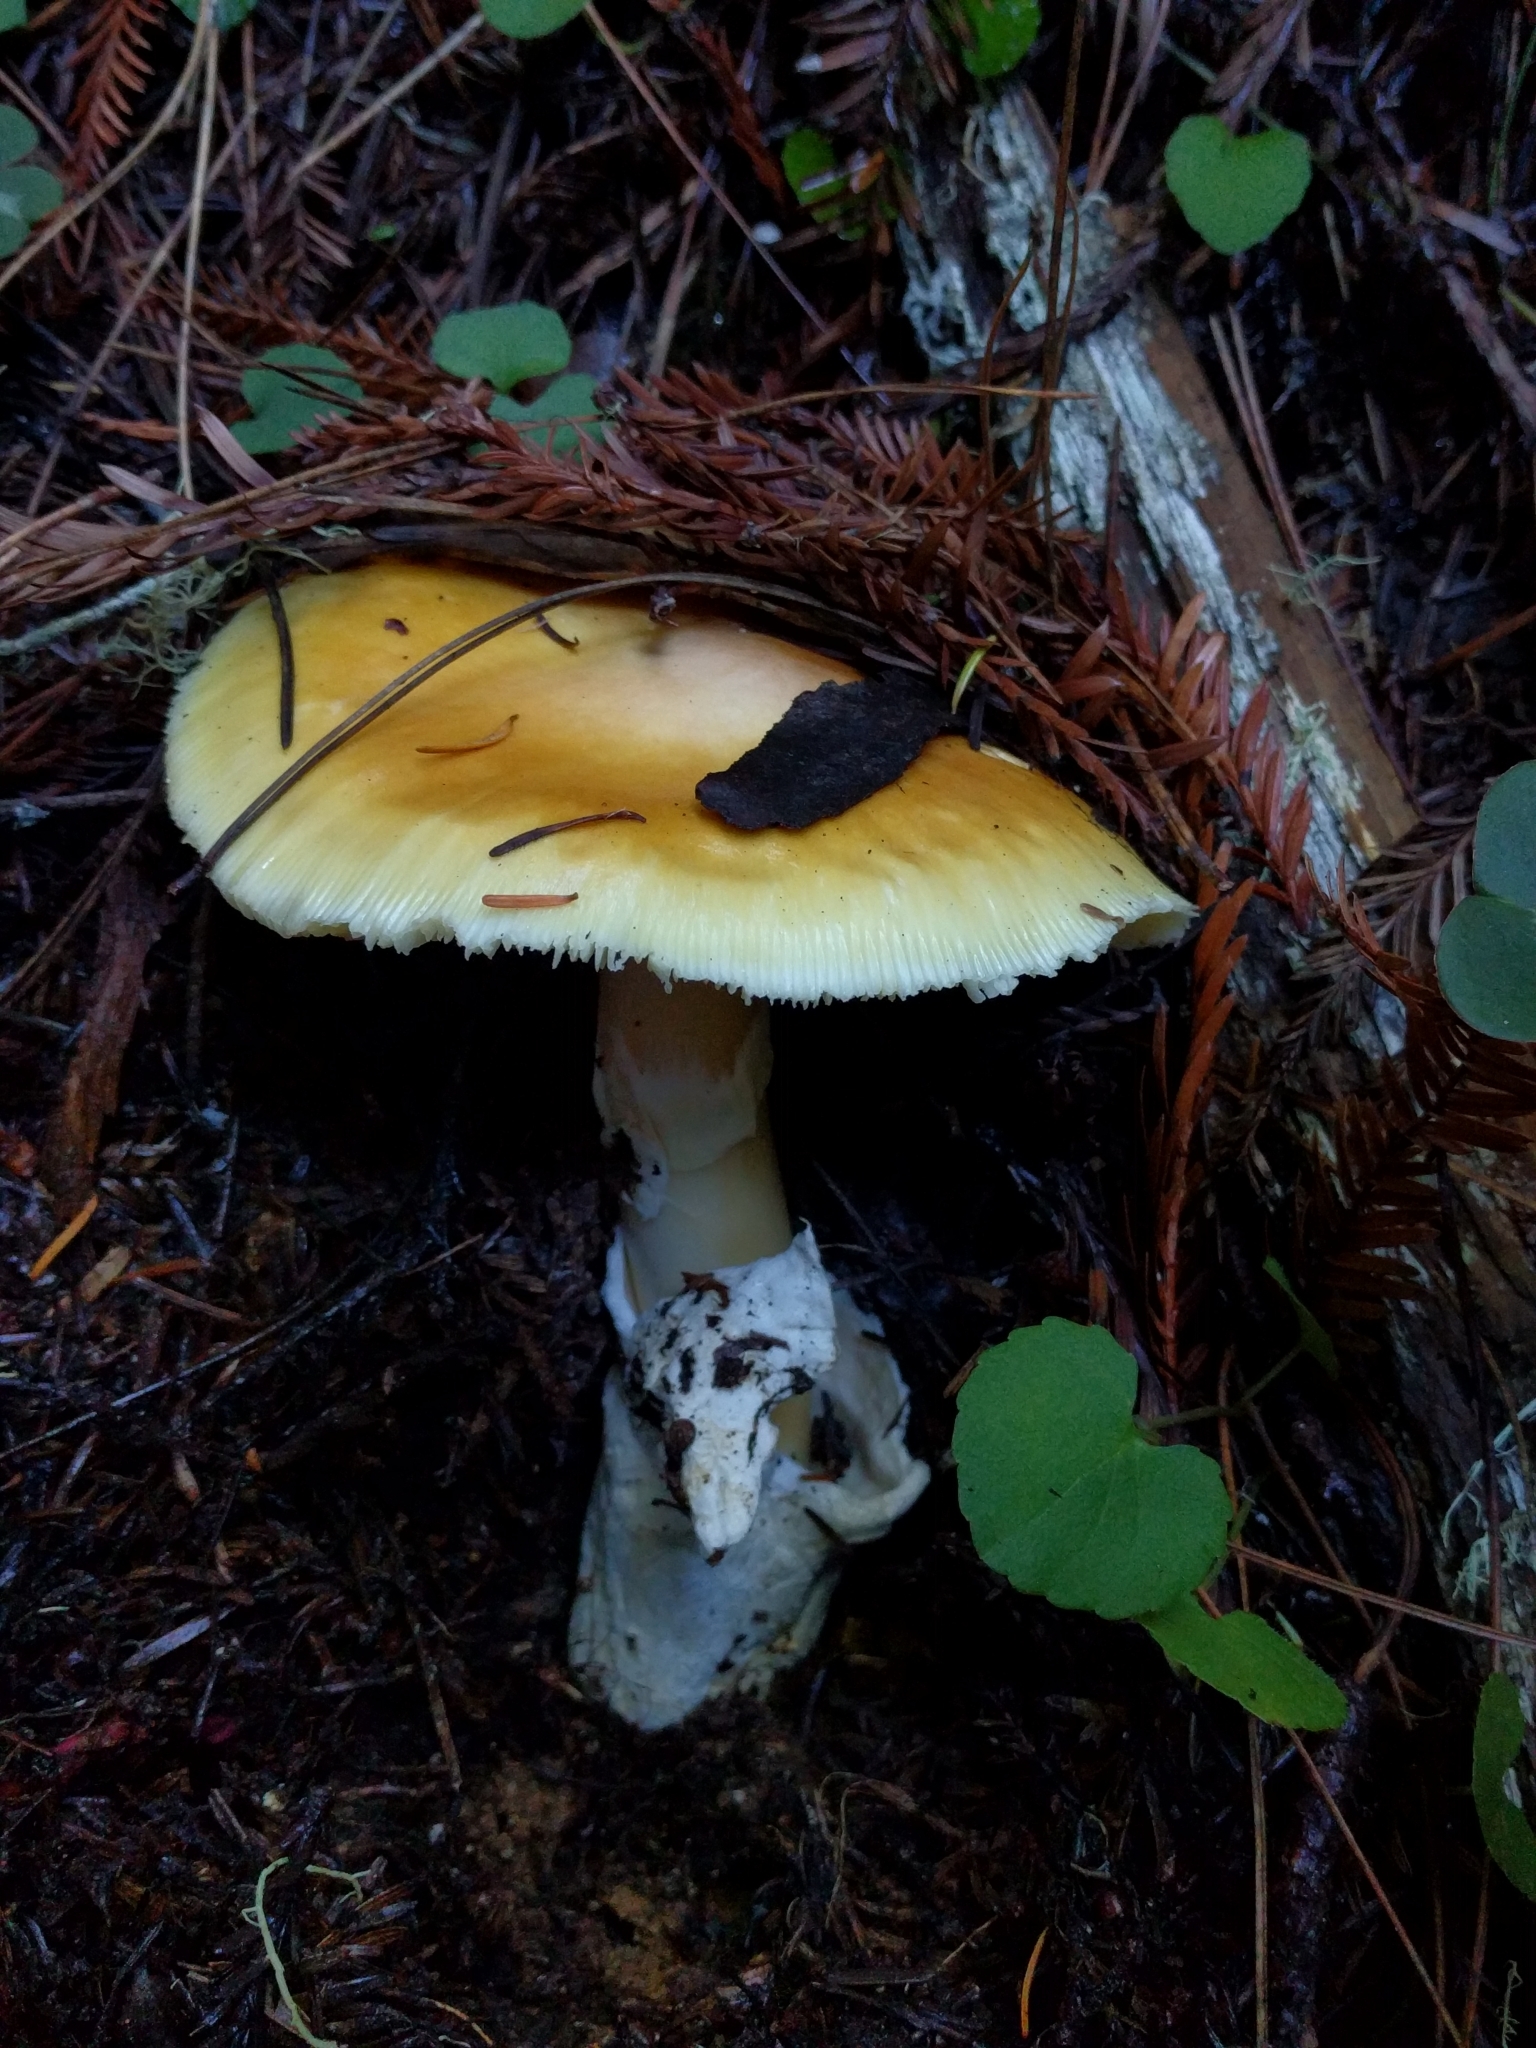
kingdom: Fungi
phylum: Basidiomycota
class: Agaricomycetes
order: Agaricales
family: Amanitaceae
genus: Amanita
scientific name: Amanita calyptroderma
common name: Coccora
